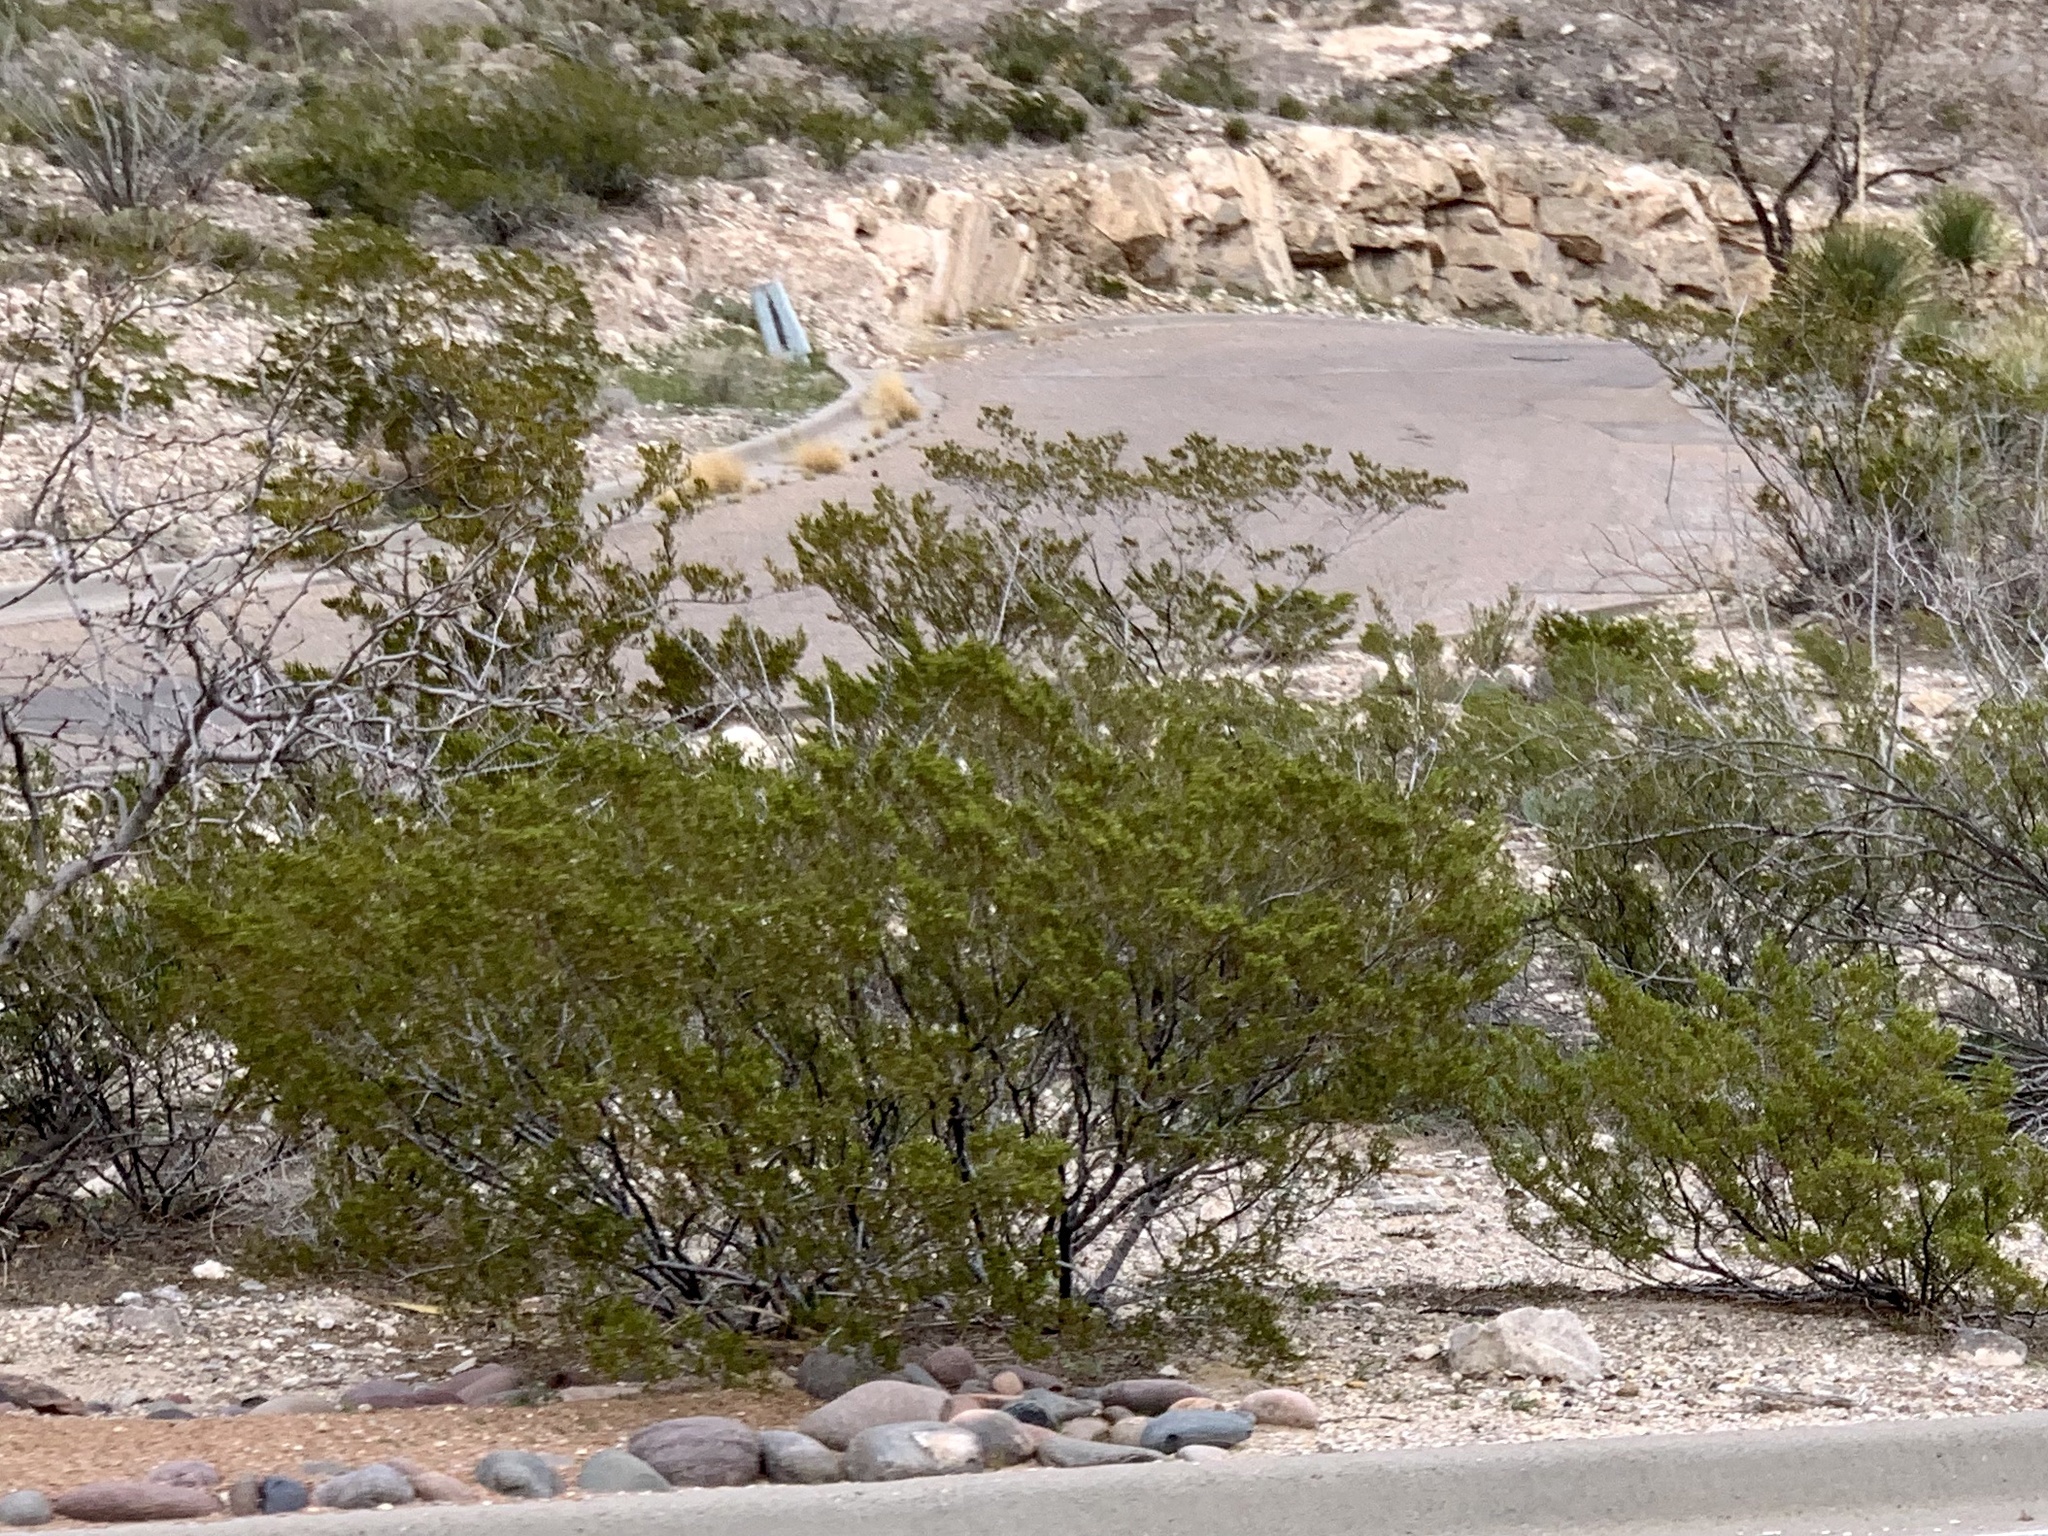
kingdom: Plantae
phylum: Tracheophyta
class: Magnoliopsida
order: Zygophyllales
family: Zygophyllaceae
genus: Larrea
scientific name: Larrea tridentata
